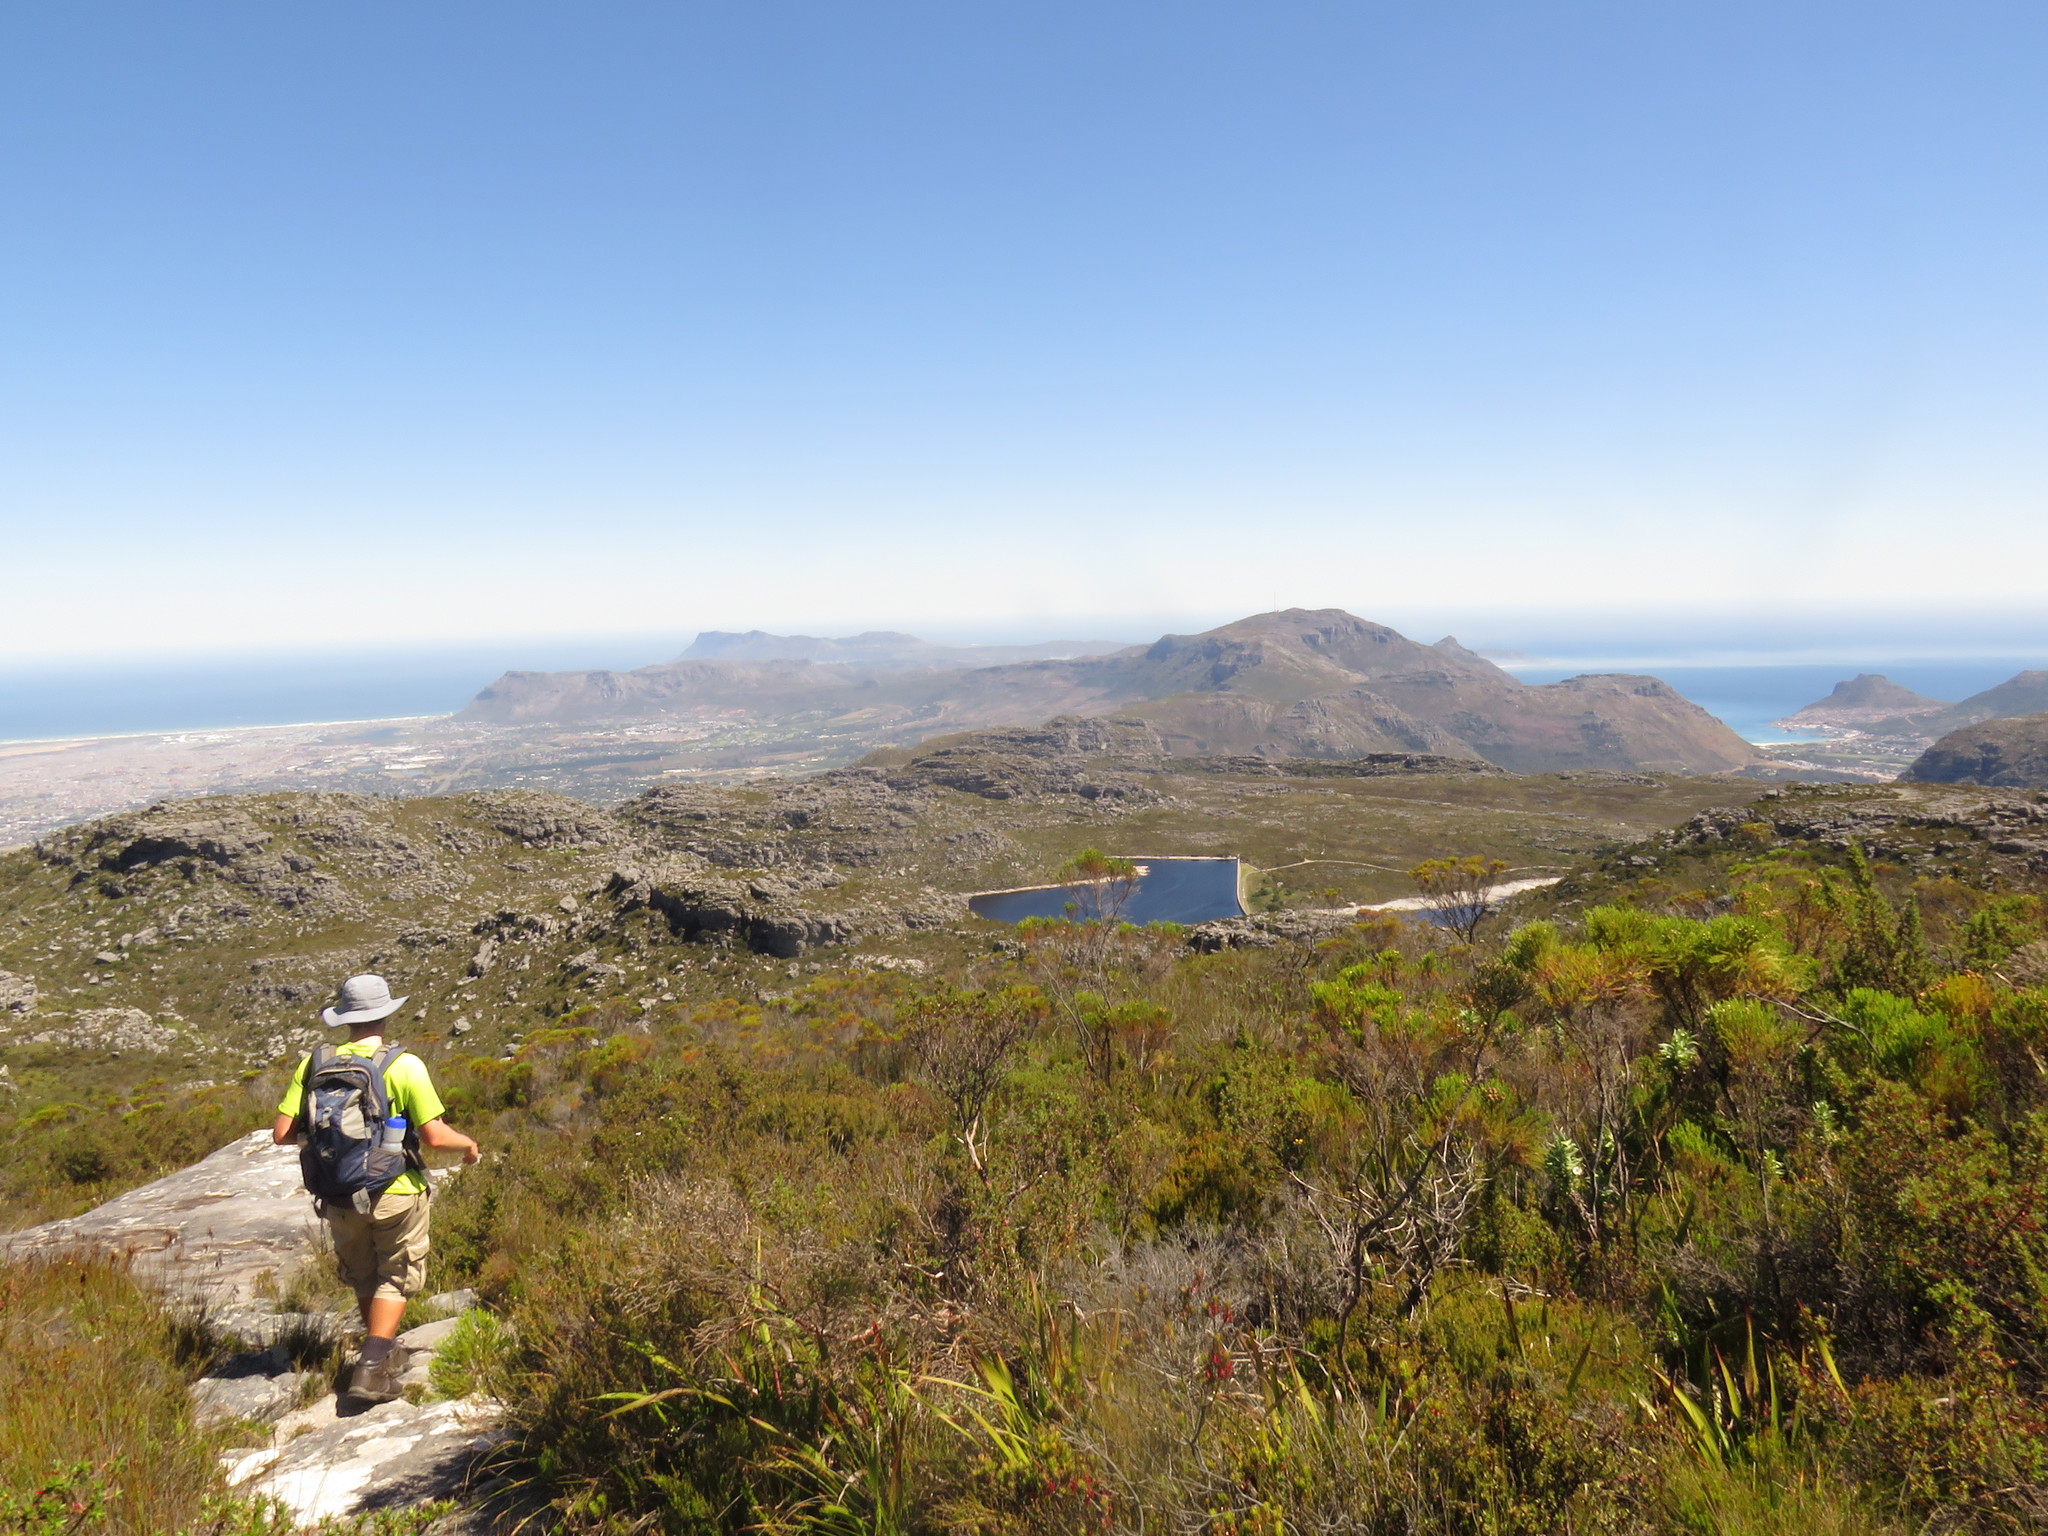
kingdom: Plantae
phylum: Tracheophyta
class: Magnoliopsida
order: Proteales
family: Proteaceae
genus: Leucadendron
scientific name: Leucadendron strobilinum
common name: Mountain rose
